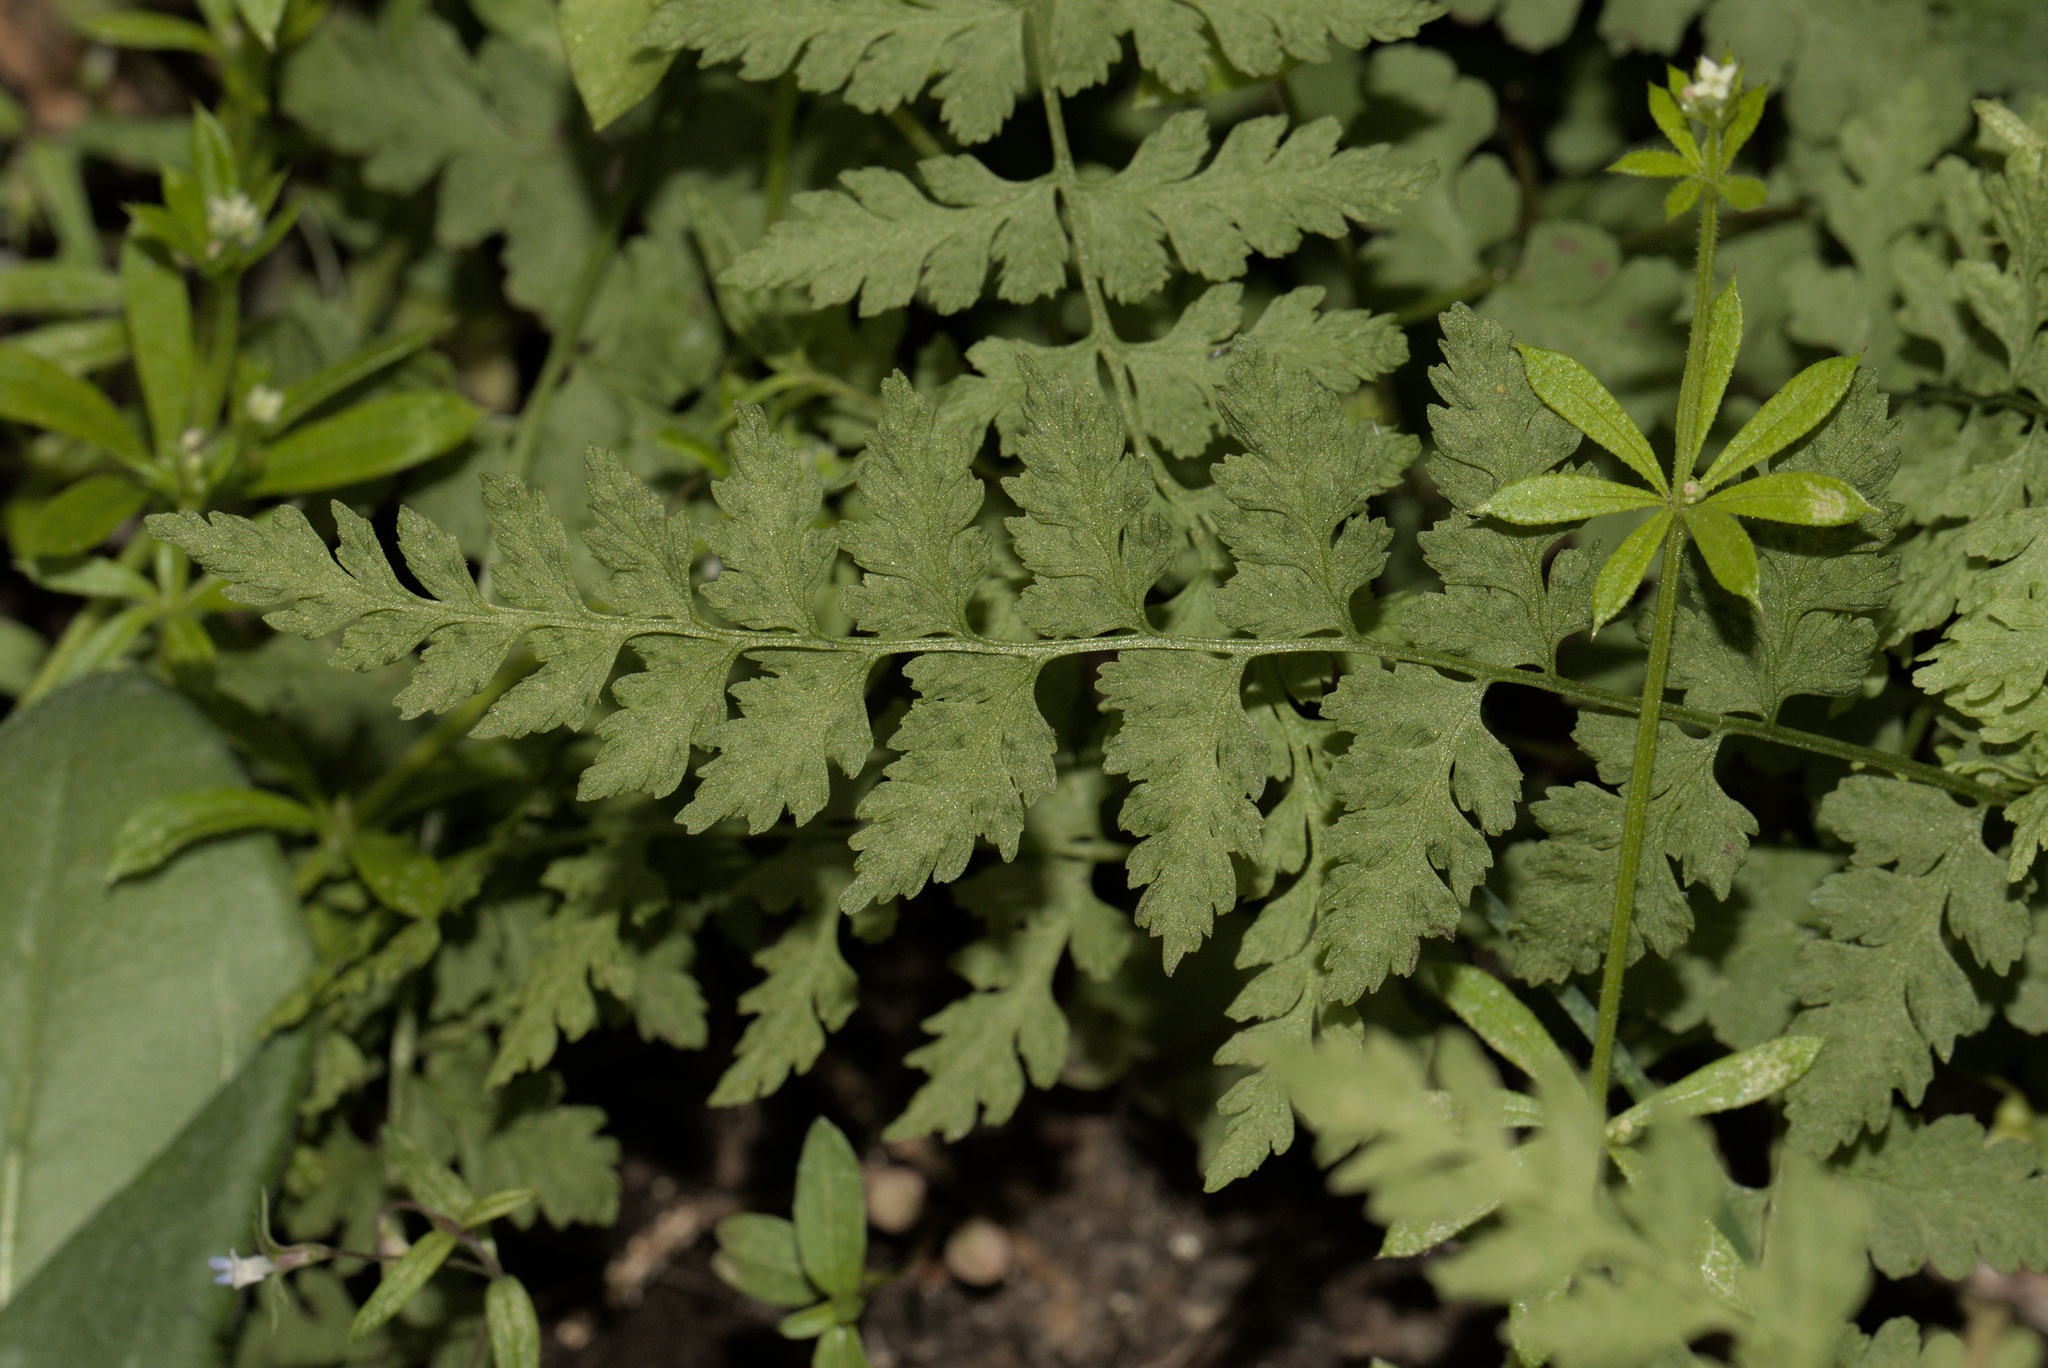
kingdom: Plantae
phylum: Tracheophyta
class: Polypodiopsida
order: Polypodiales
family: Cystopteridaceae
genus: Cystopteris
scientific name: Cystopteris fragilis
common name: Brittle bladder fern
